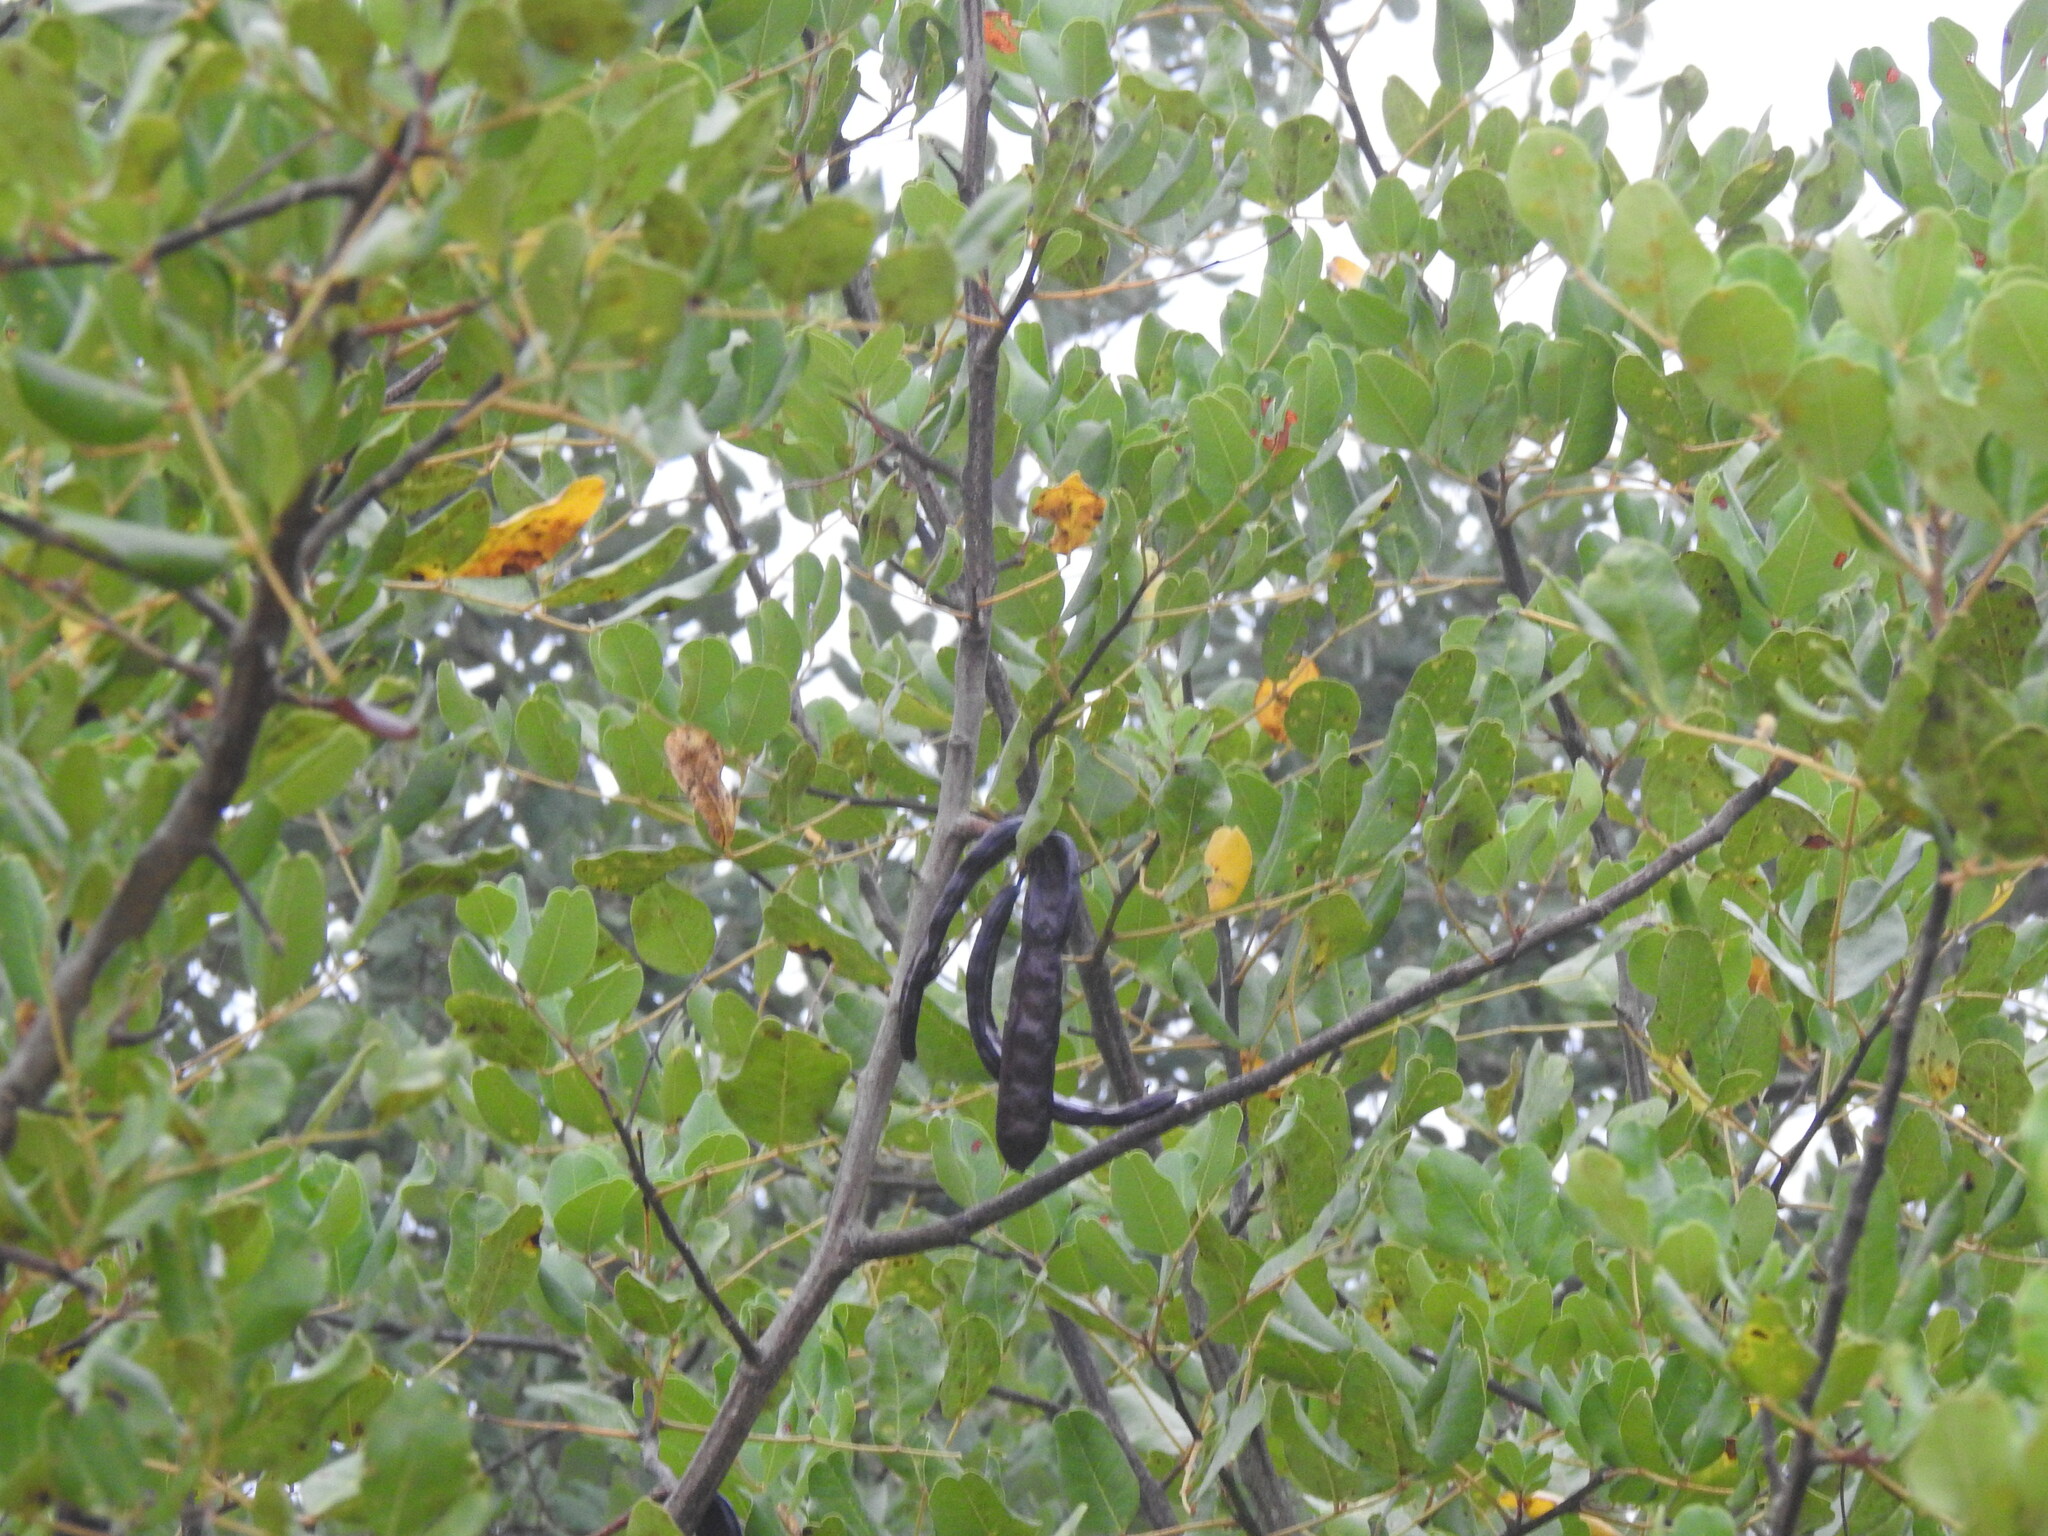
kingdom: Plantae
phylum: Tracheophyta
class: Magnoliopsida
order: Fabales
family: Fabaceae
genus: Ceratonia
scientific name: Ceratonia siliqua
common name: Carob
